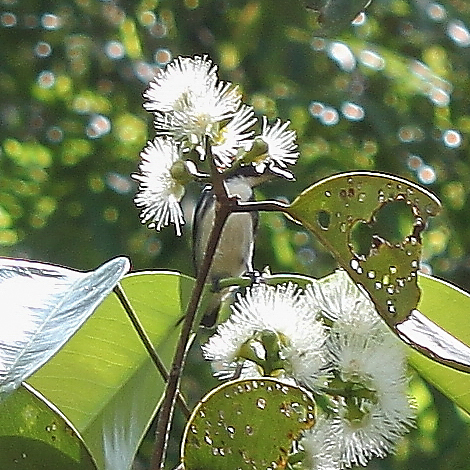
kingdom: Animalia
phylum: Chordata
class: Aves
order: Passeriformes
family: Dicaeidae
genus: Dicaeum
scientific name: Dicaeum cruentatum
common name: Scarlet-backed flowerpecker
